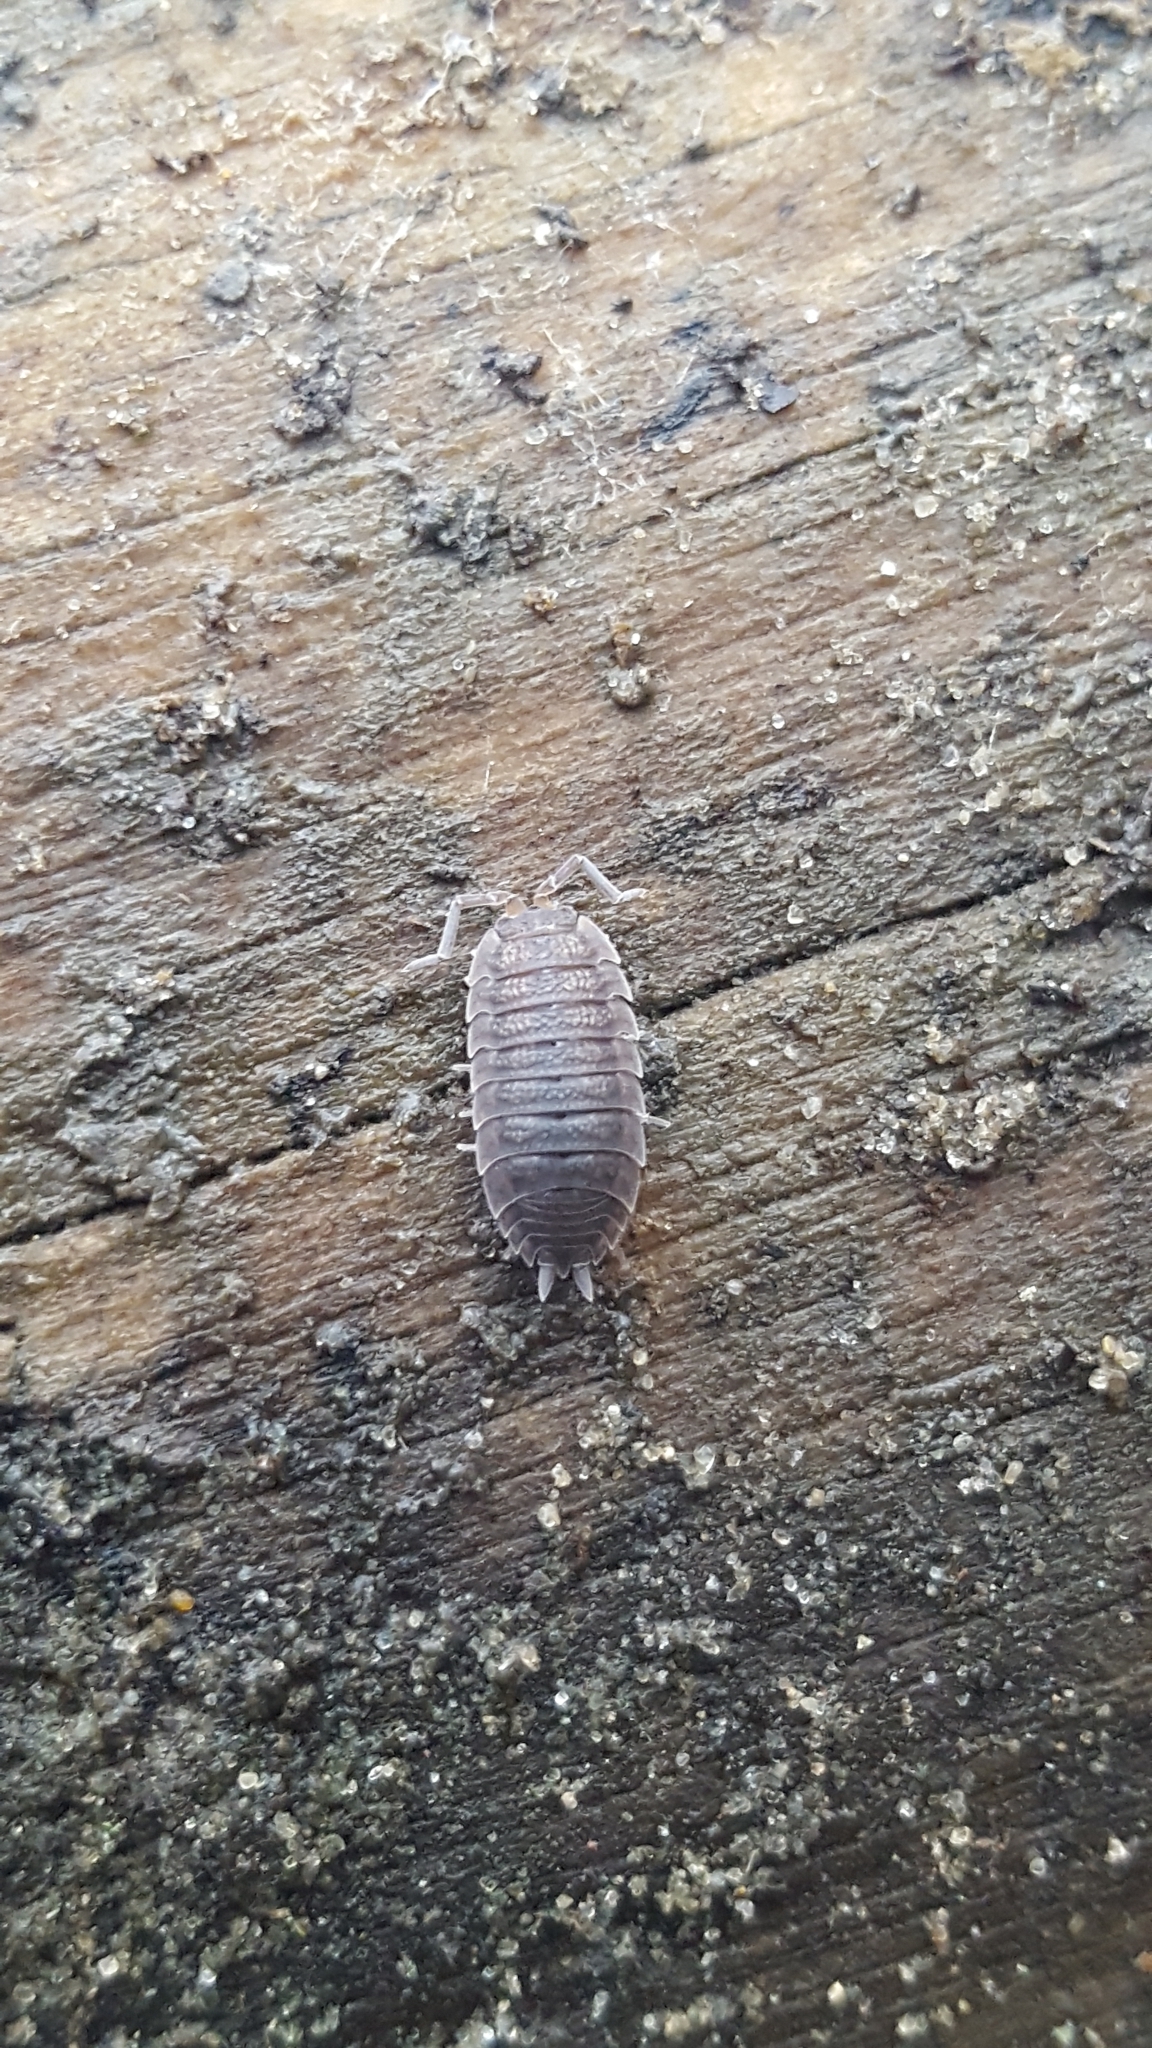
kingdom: Animalia
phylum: Arthropoda
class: Malacostraca
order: Isopoda
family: Porcellionidae
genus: Porcellio
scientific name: Porcellio scaber
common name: Common rough woodlouse
